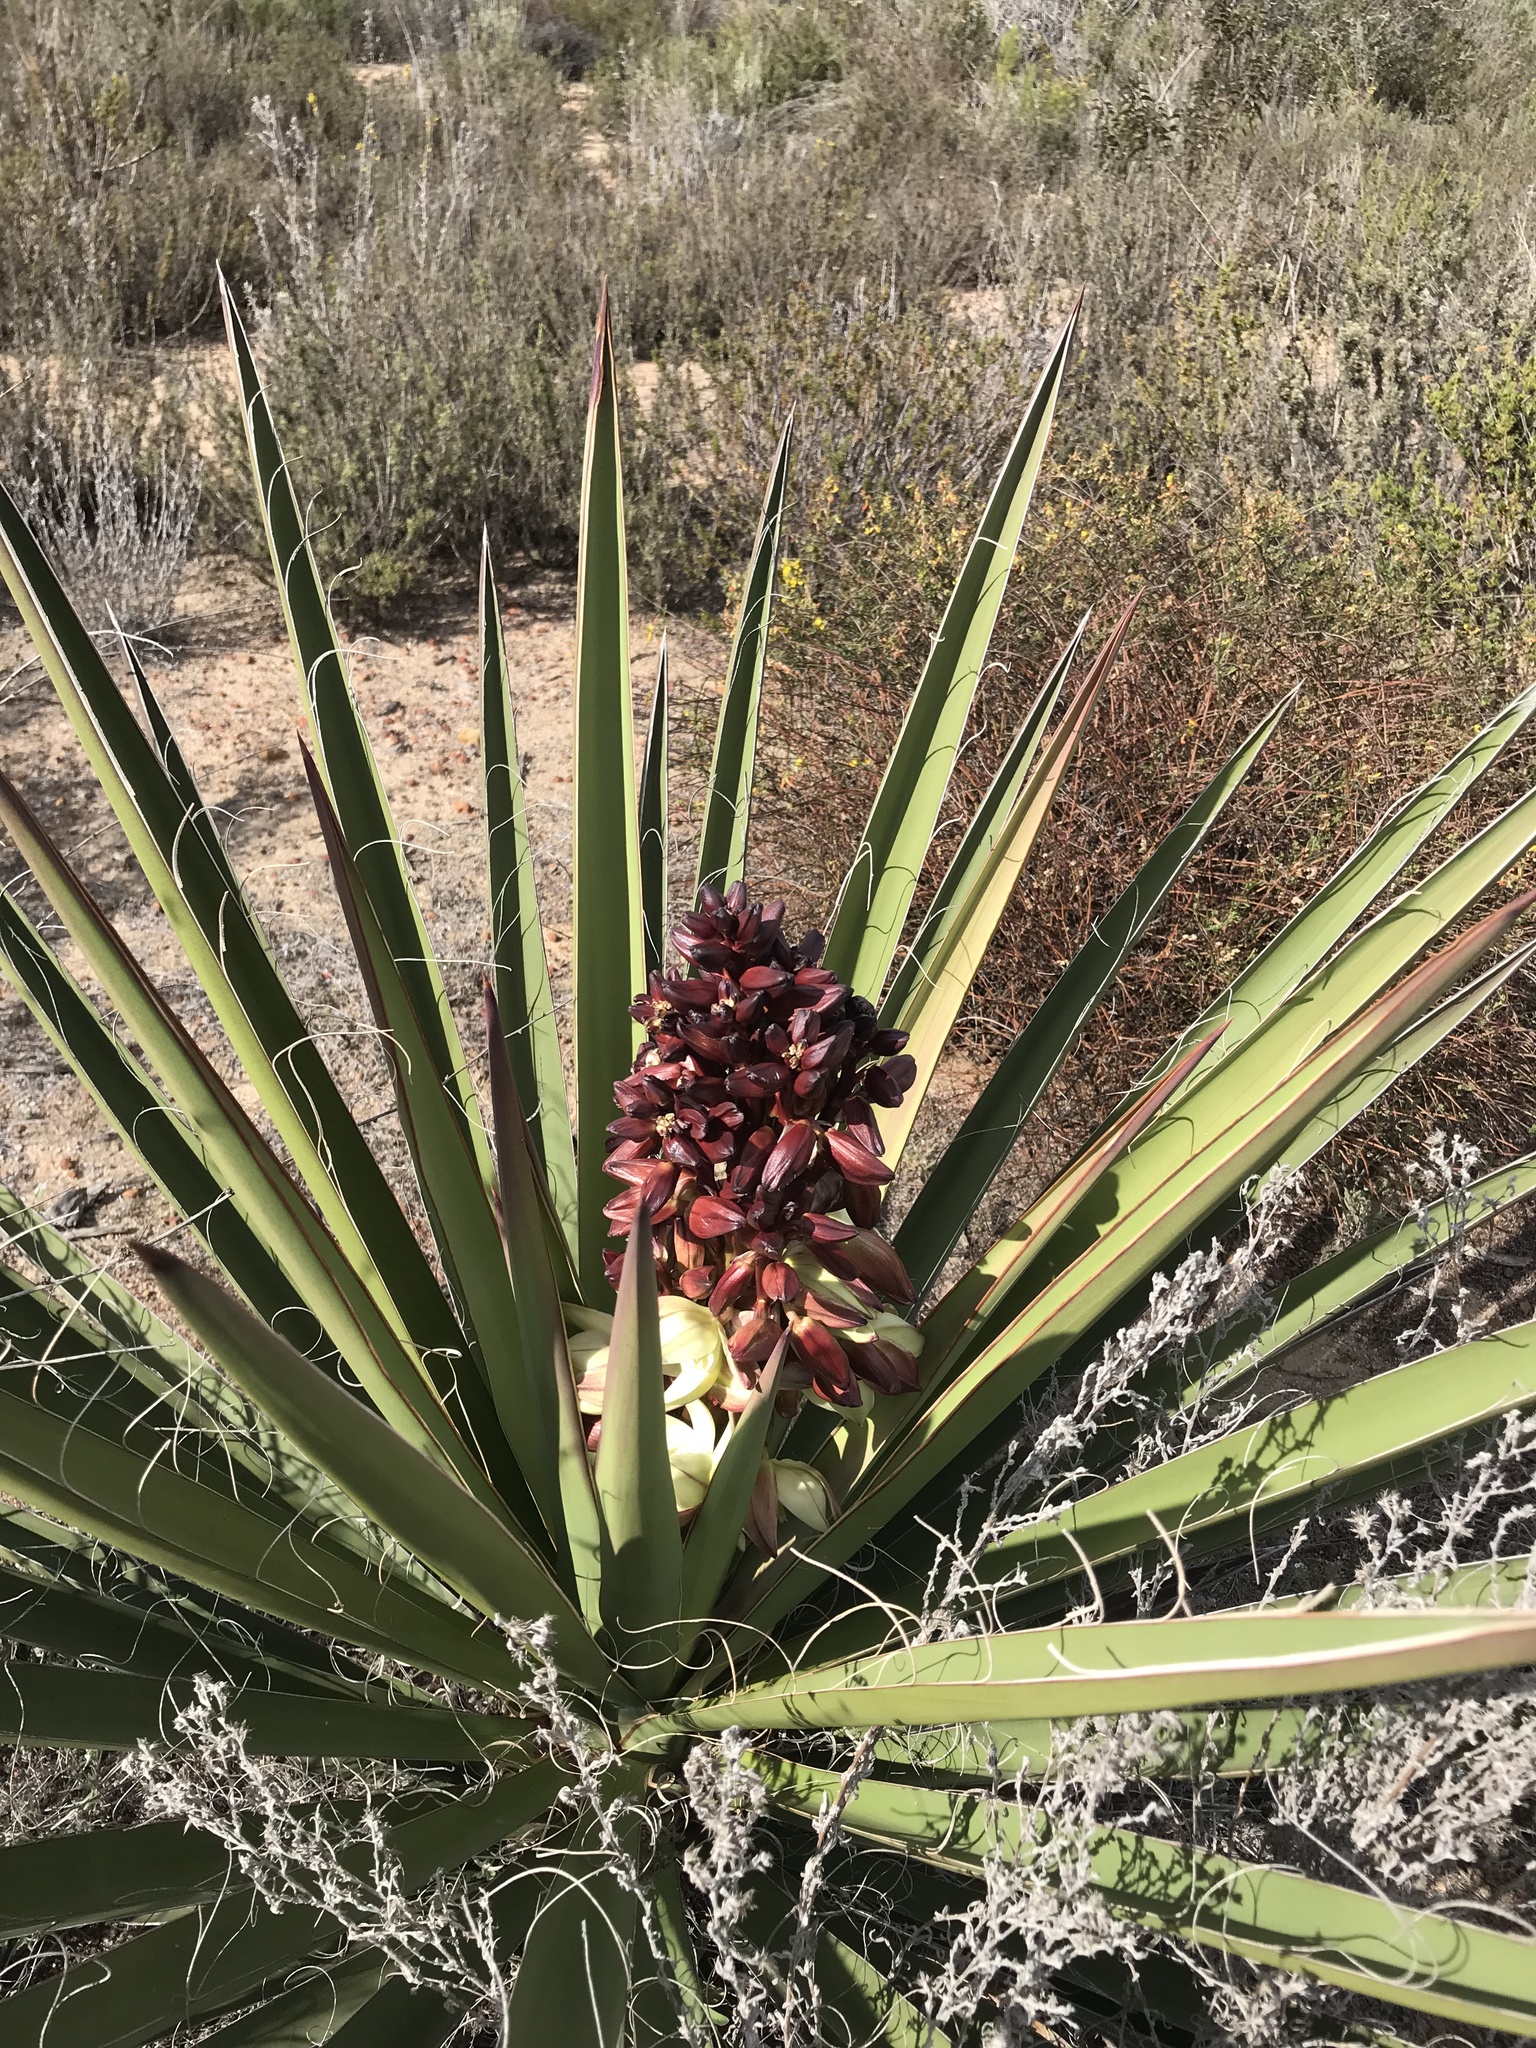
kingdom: Plantae
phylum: Tracheophyta
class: Liliopsida
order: Asparagales
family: Asparagaceae
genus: Yucca
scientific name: Yucca schidigera
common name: Mojave yucca
